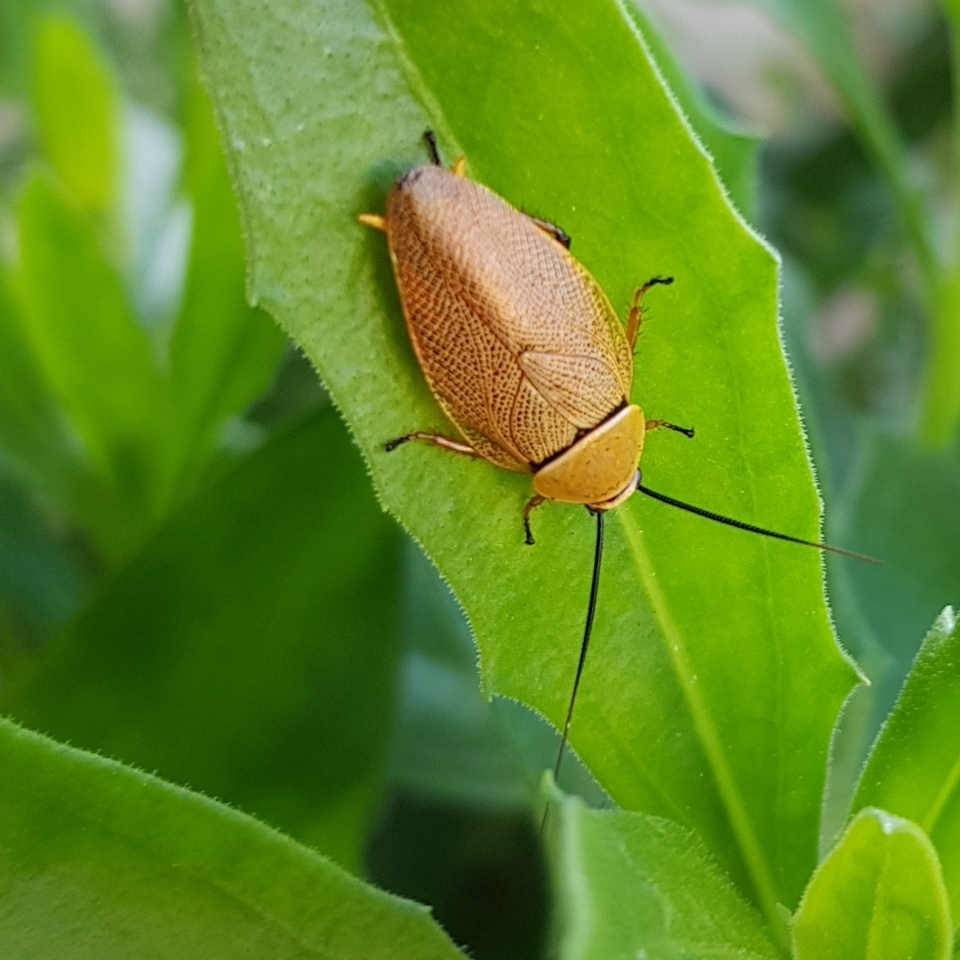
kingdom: Animalia
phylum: Arthropoda
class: Insecta
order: Blattodea
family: Ectobiidae
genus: Ellipsidion
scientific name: Ellipsidion humerale
